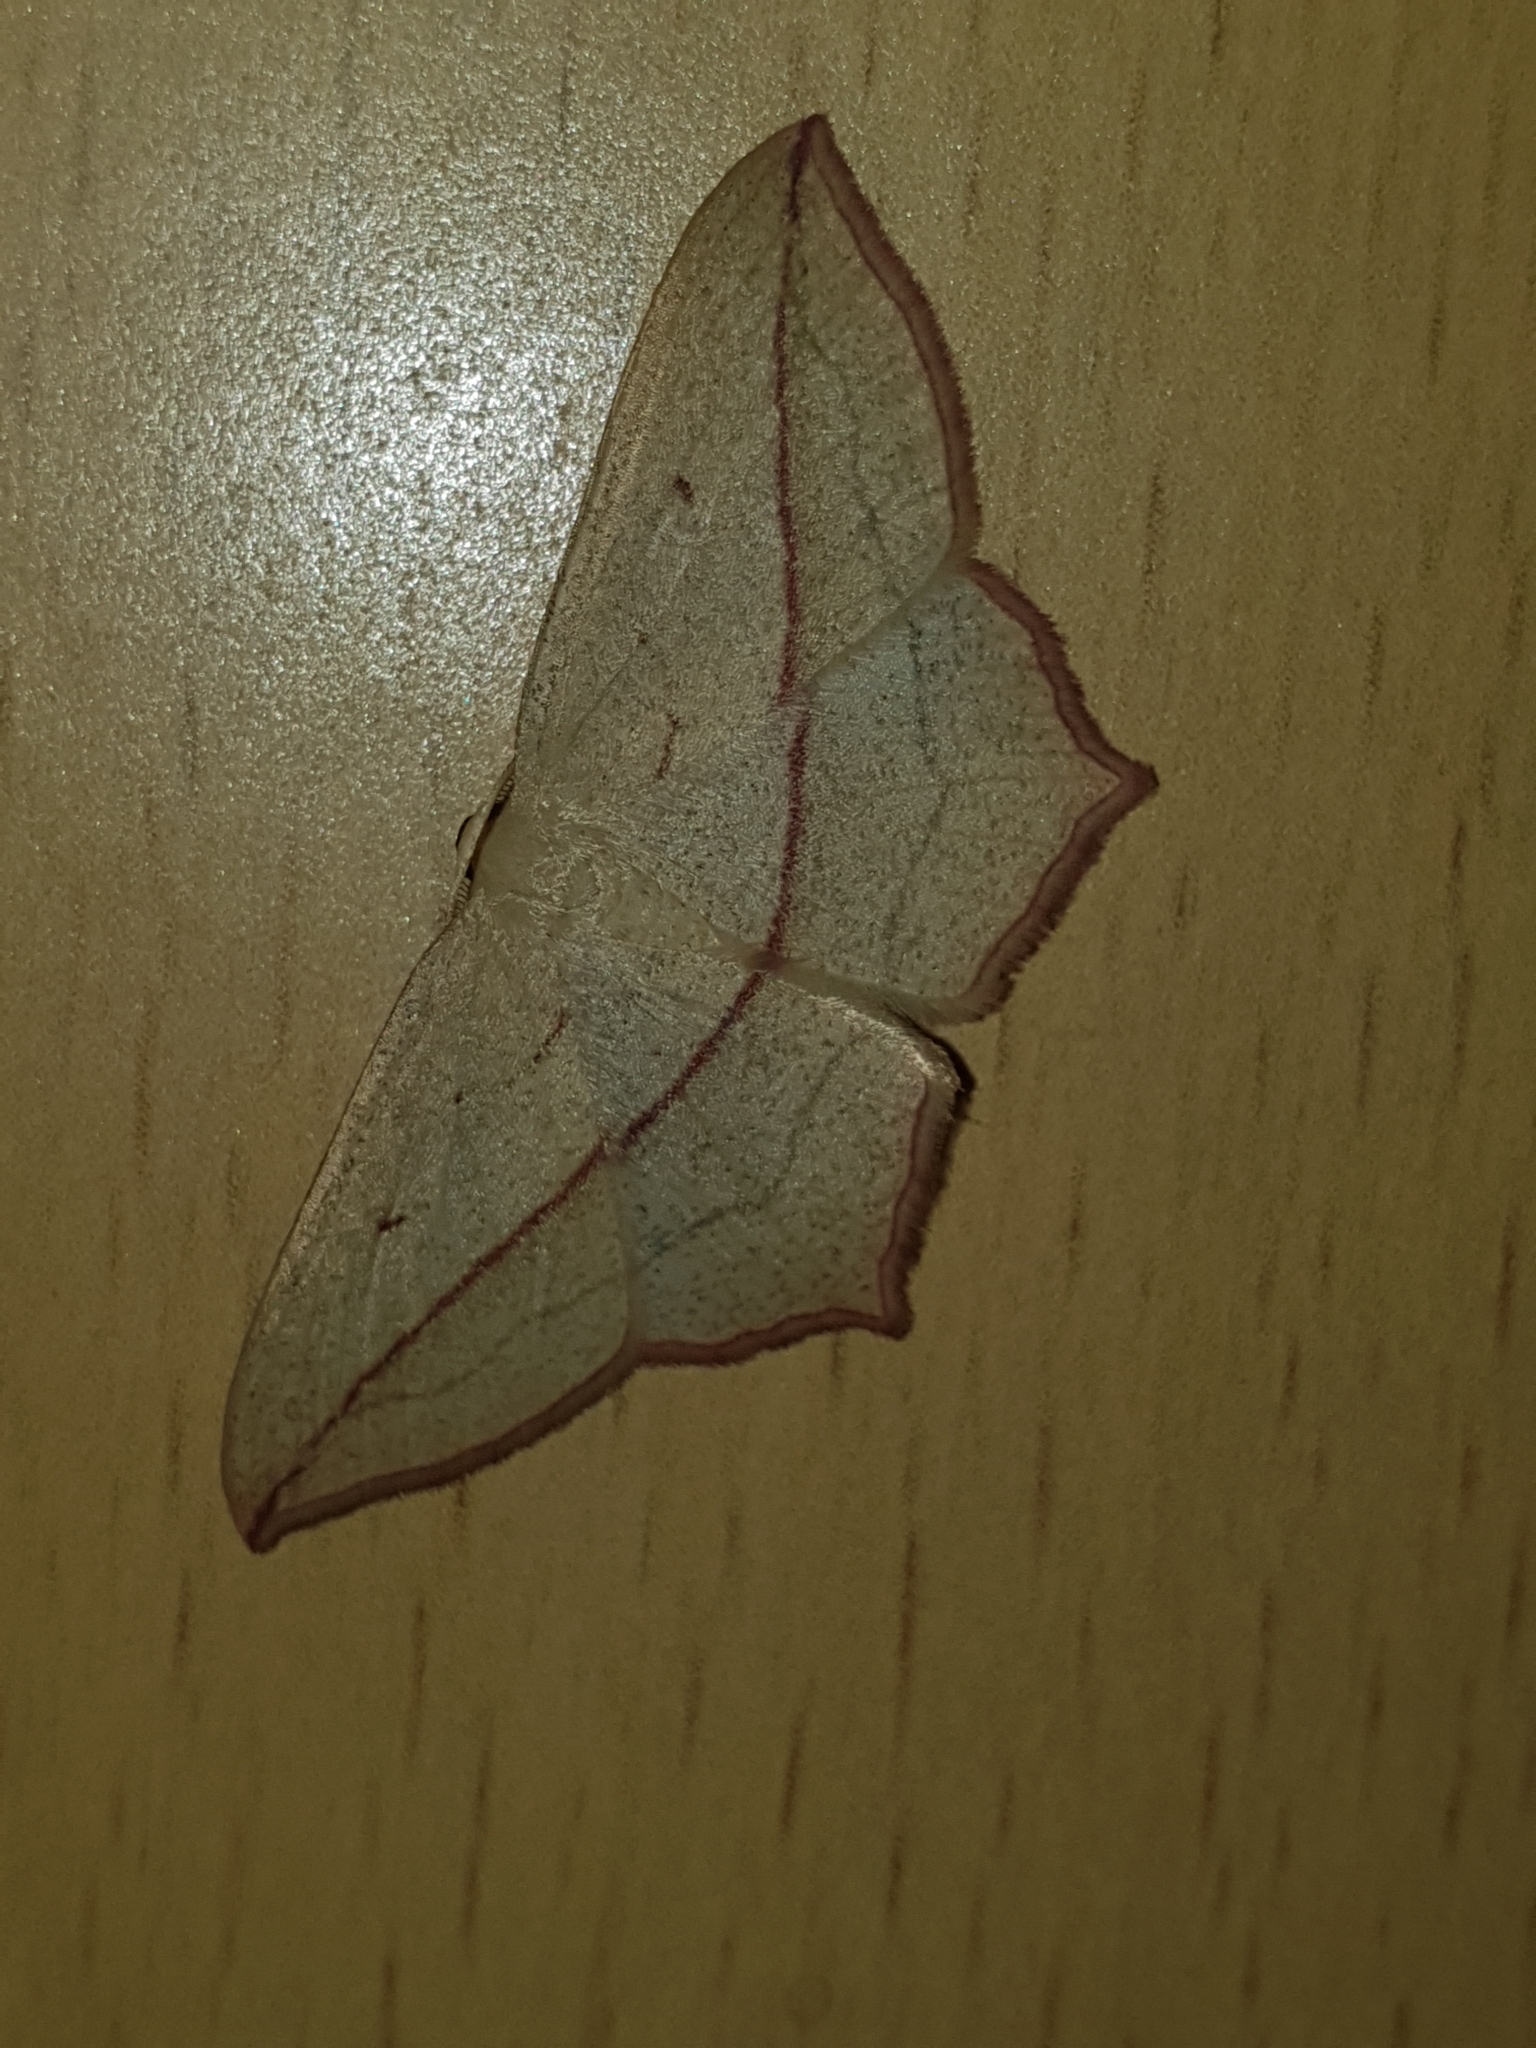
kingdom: Animalia
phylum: Arthropoda
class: Insecta
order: Lepidoptera
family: Geometridae
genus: Timandra
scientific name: Timandra comae
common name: Blood-vein
